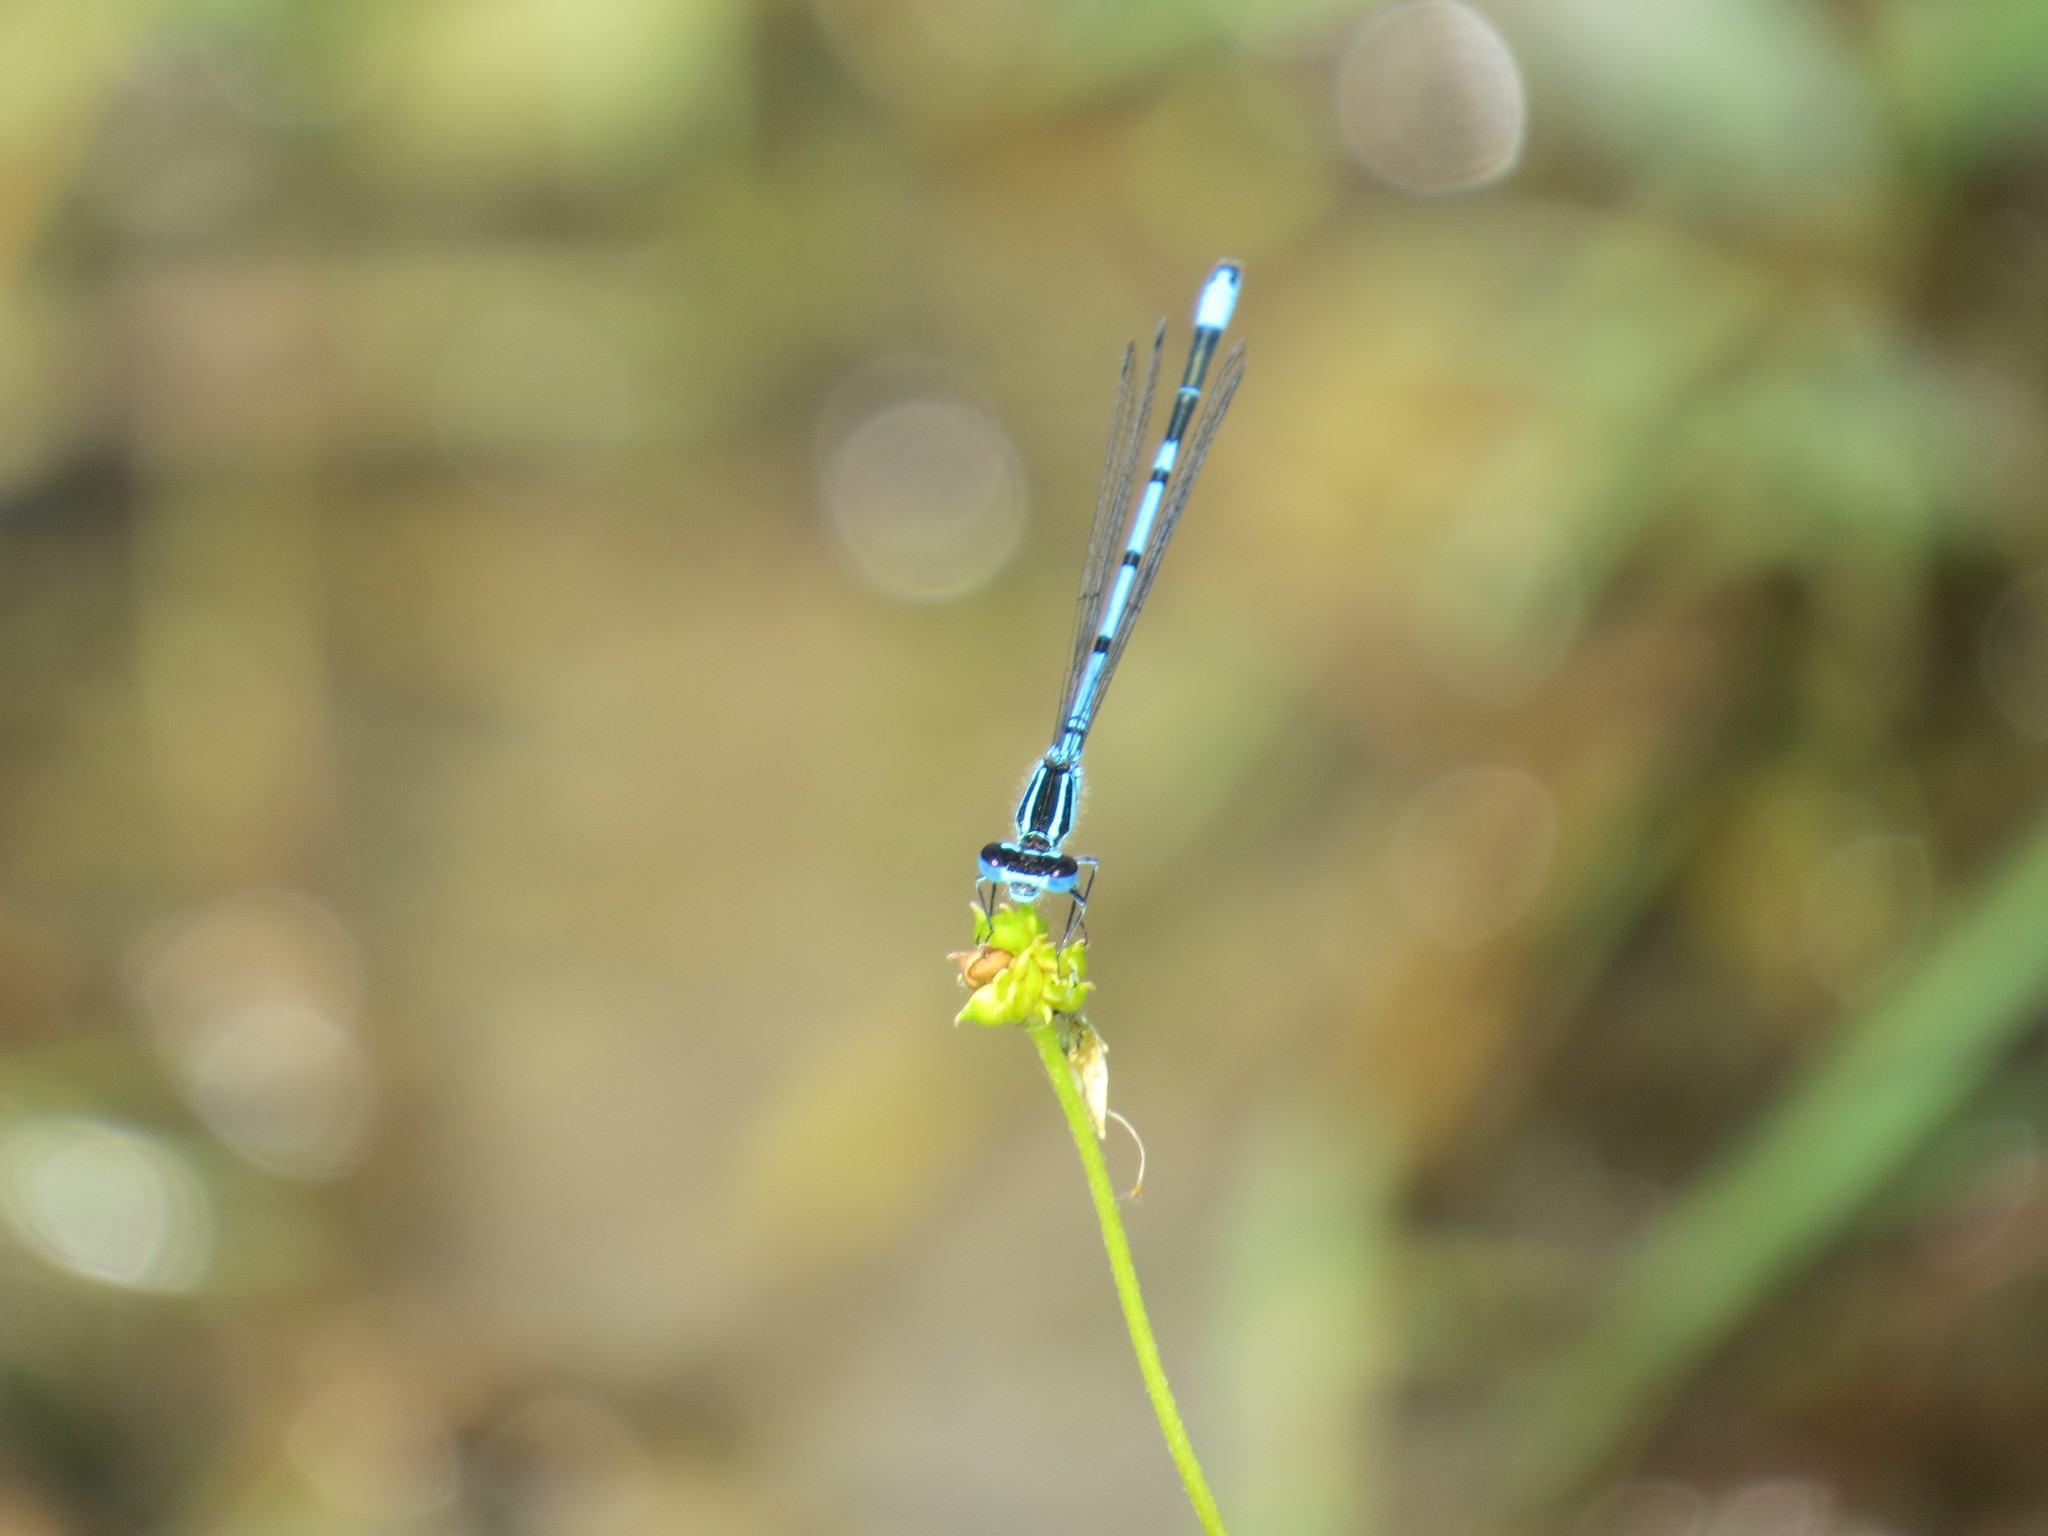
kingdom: Animalia
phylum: Arthropoda
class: Insecta
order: Odonata
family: Coenagrionidae
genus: Coenagrion
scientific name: Coenagrion puella
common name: Azure damselfly
